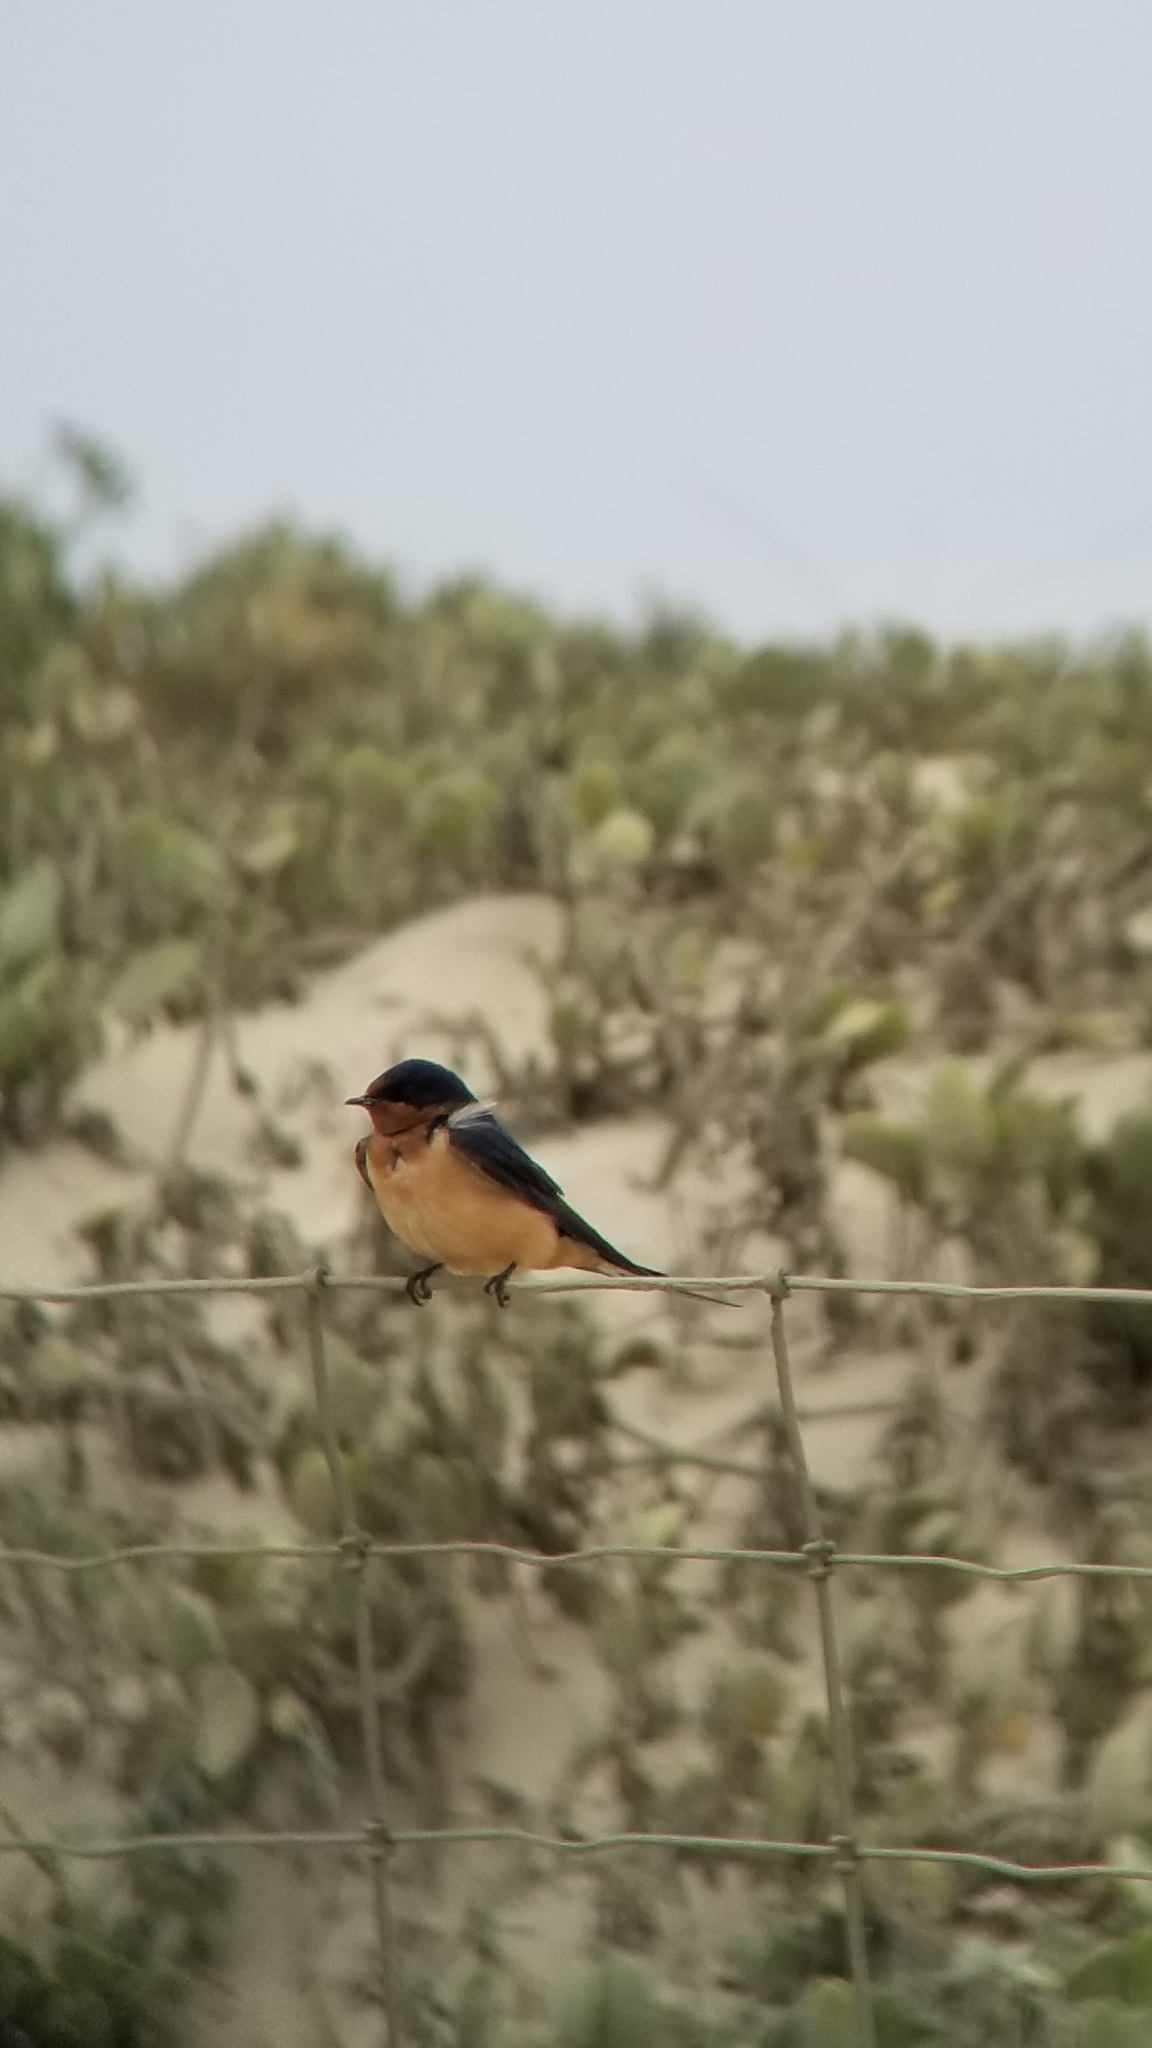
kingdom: Animalia
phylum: Chordata
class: Aves
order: Passeriformes
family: Hirundinidae
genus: Hirundo
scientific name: Hirundo rustica
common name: Barn swallow
